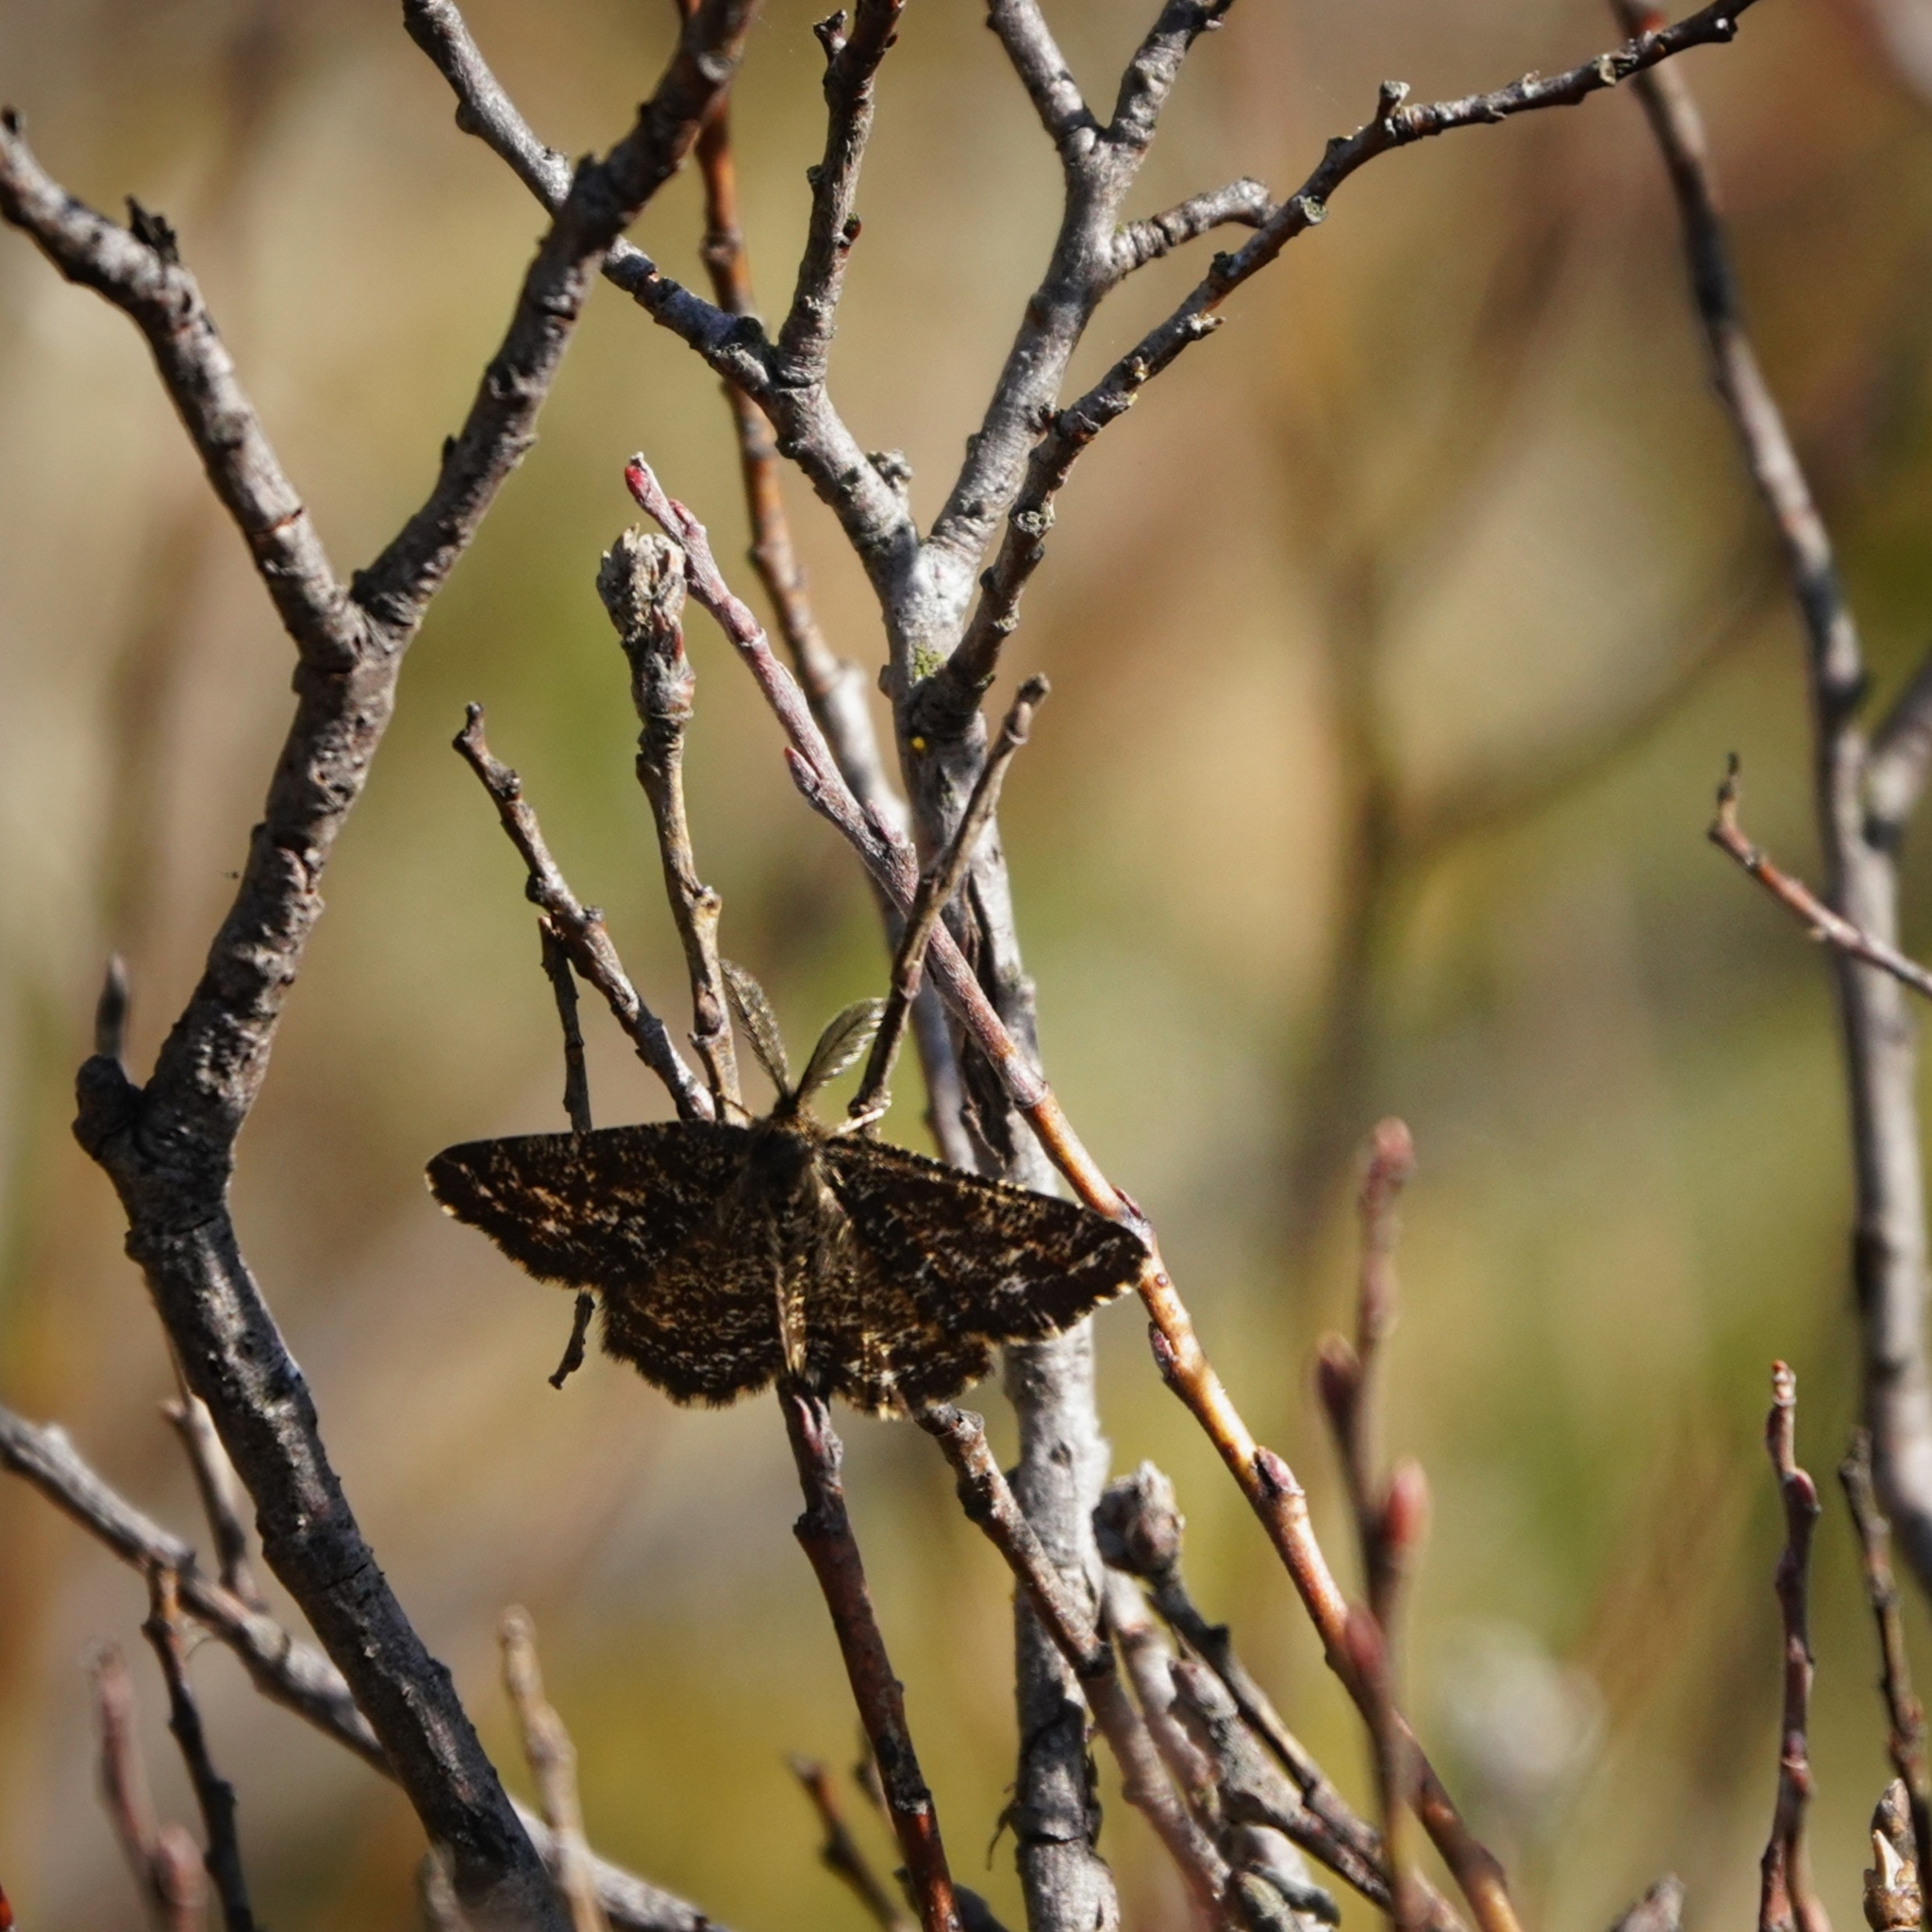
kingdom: Animalia
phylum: Arthropoda
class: Insecta
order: Lepidoptera
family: Geometridae
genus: Ematurga
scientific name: Ematurga atomaria
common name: Common heath
